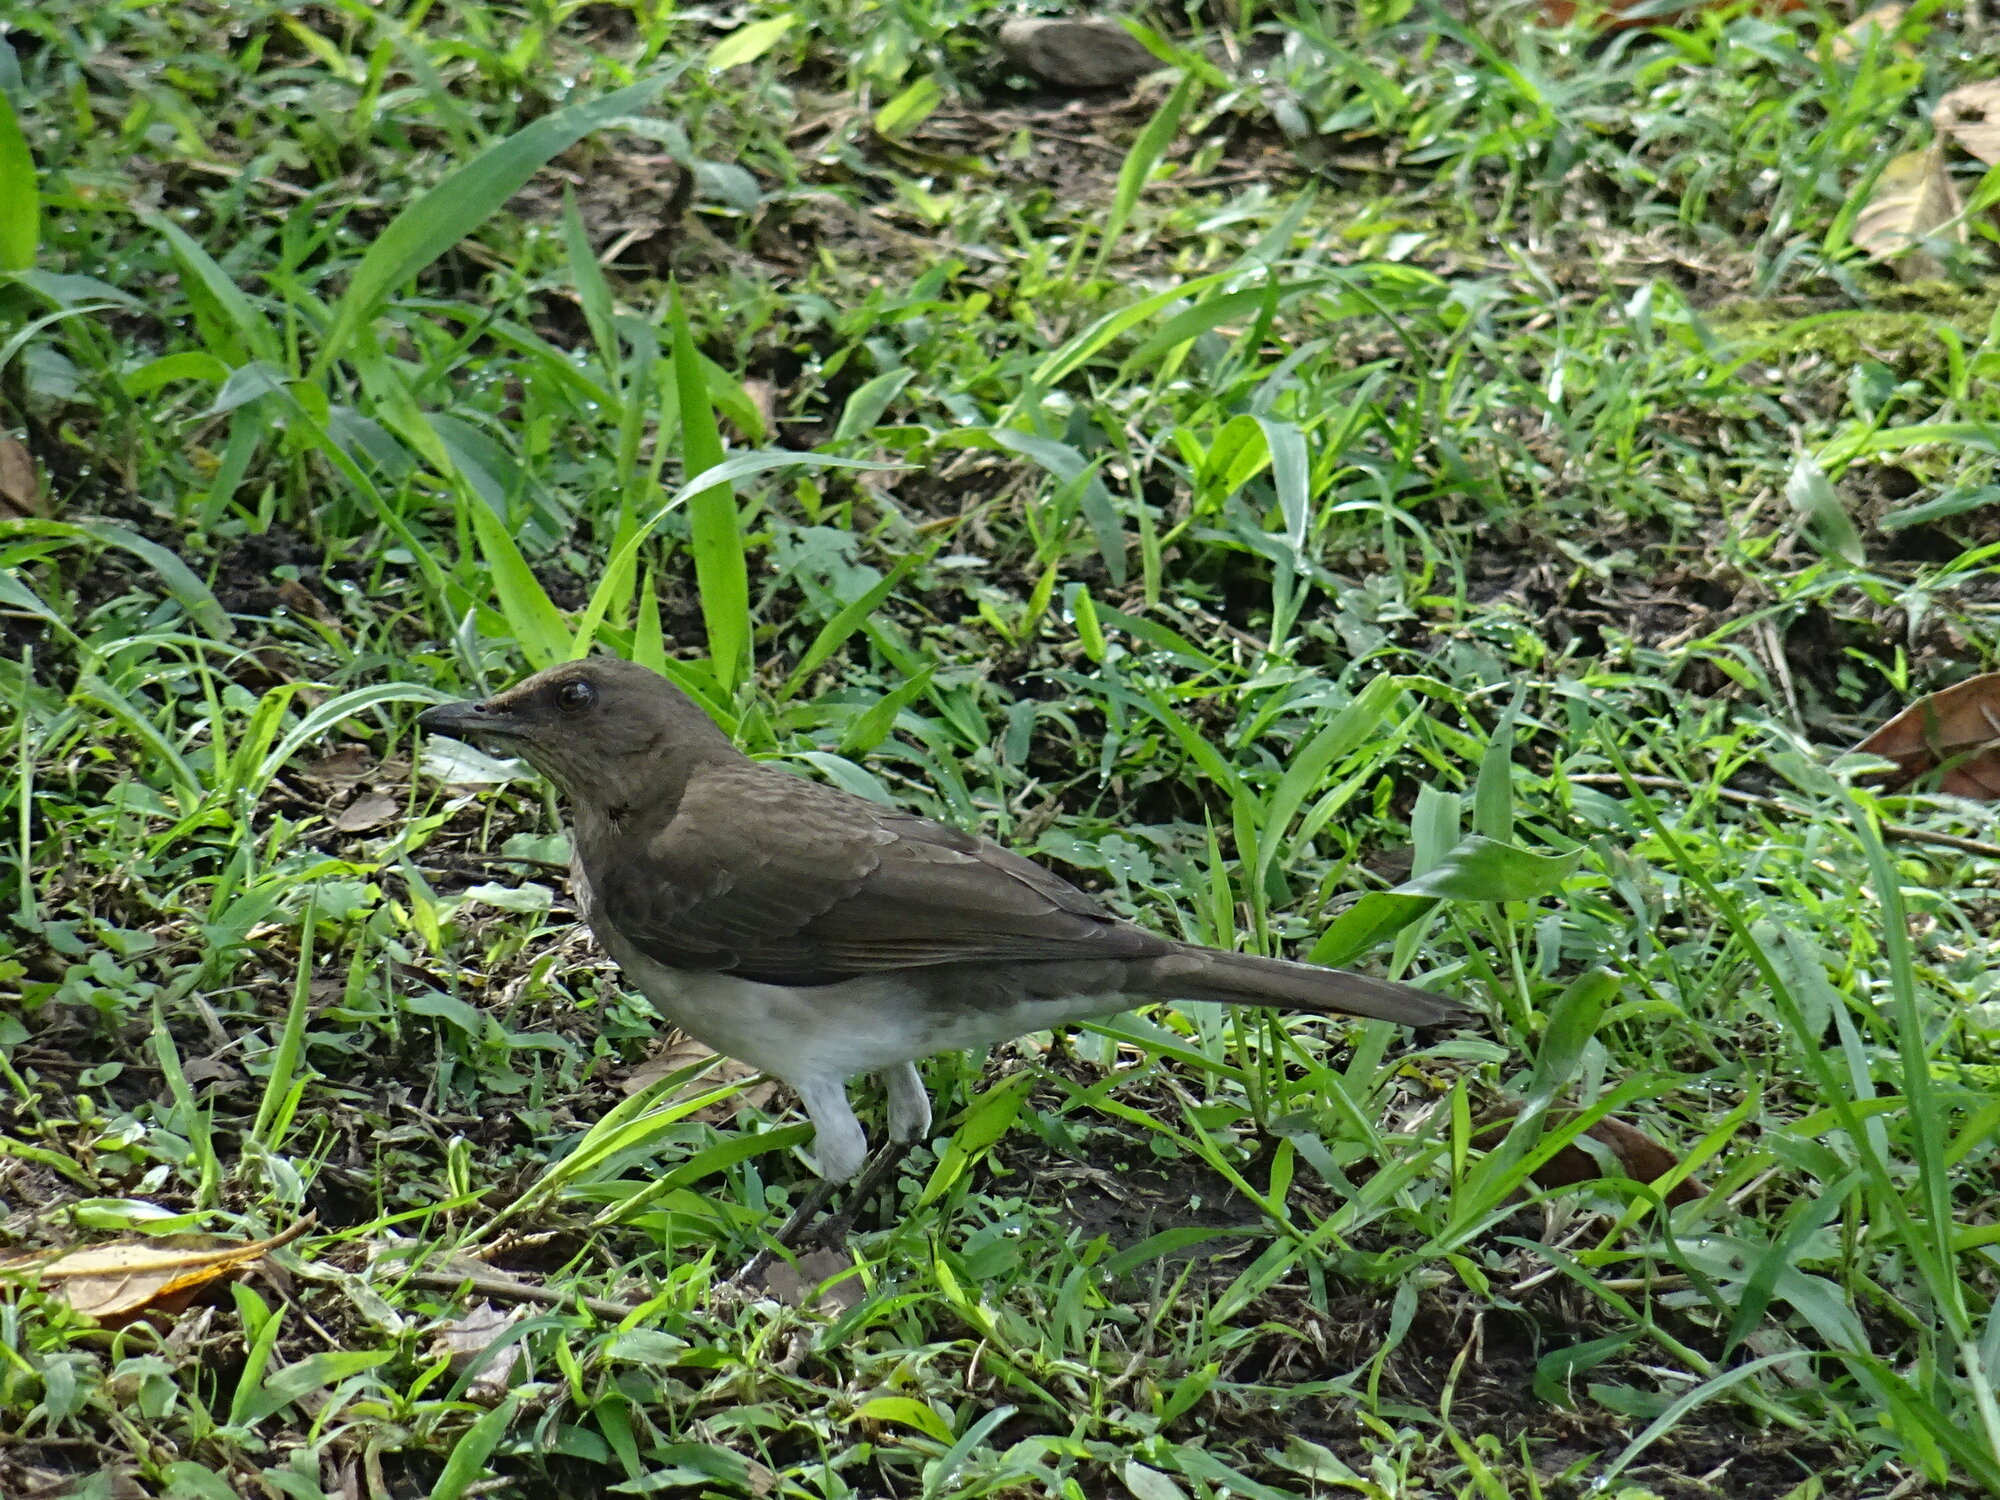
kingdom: Animalia
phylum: Chordata
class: Aves
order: Passeriformes
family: Turdidae
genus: Turdus
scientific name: Turdus ignobilis
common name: Black-billed thrush
